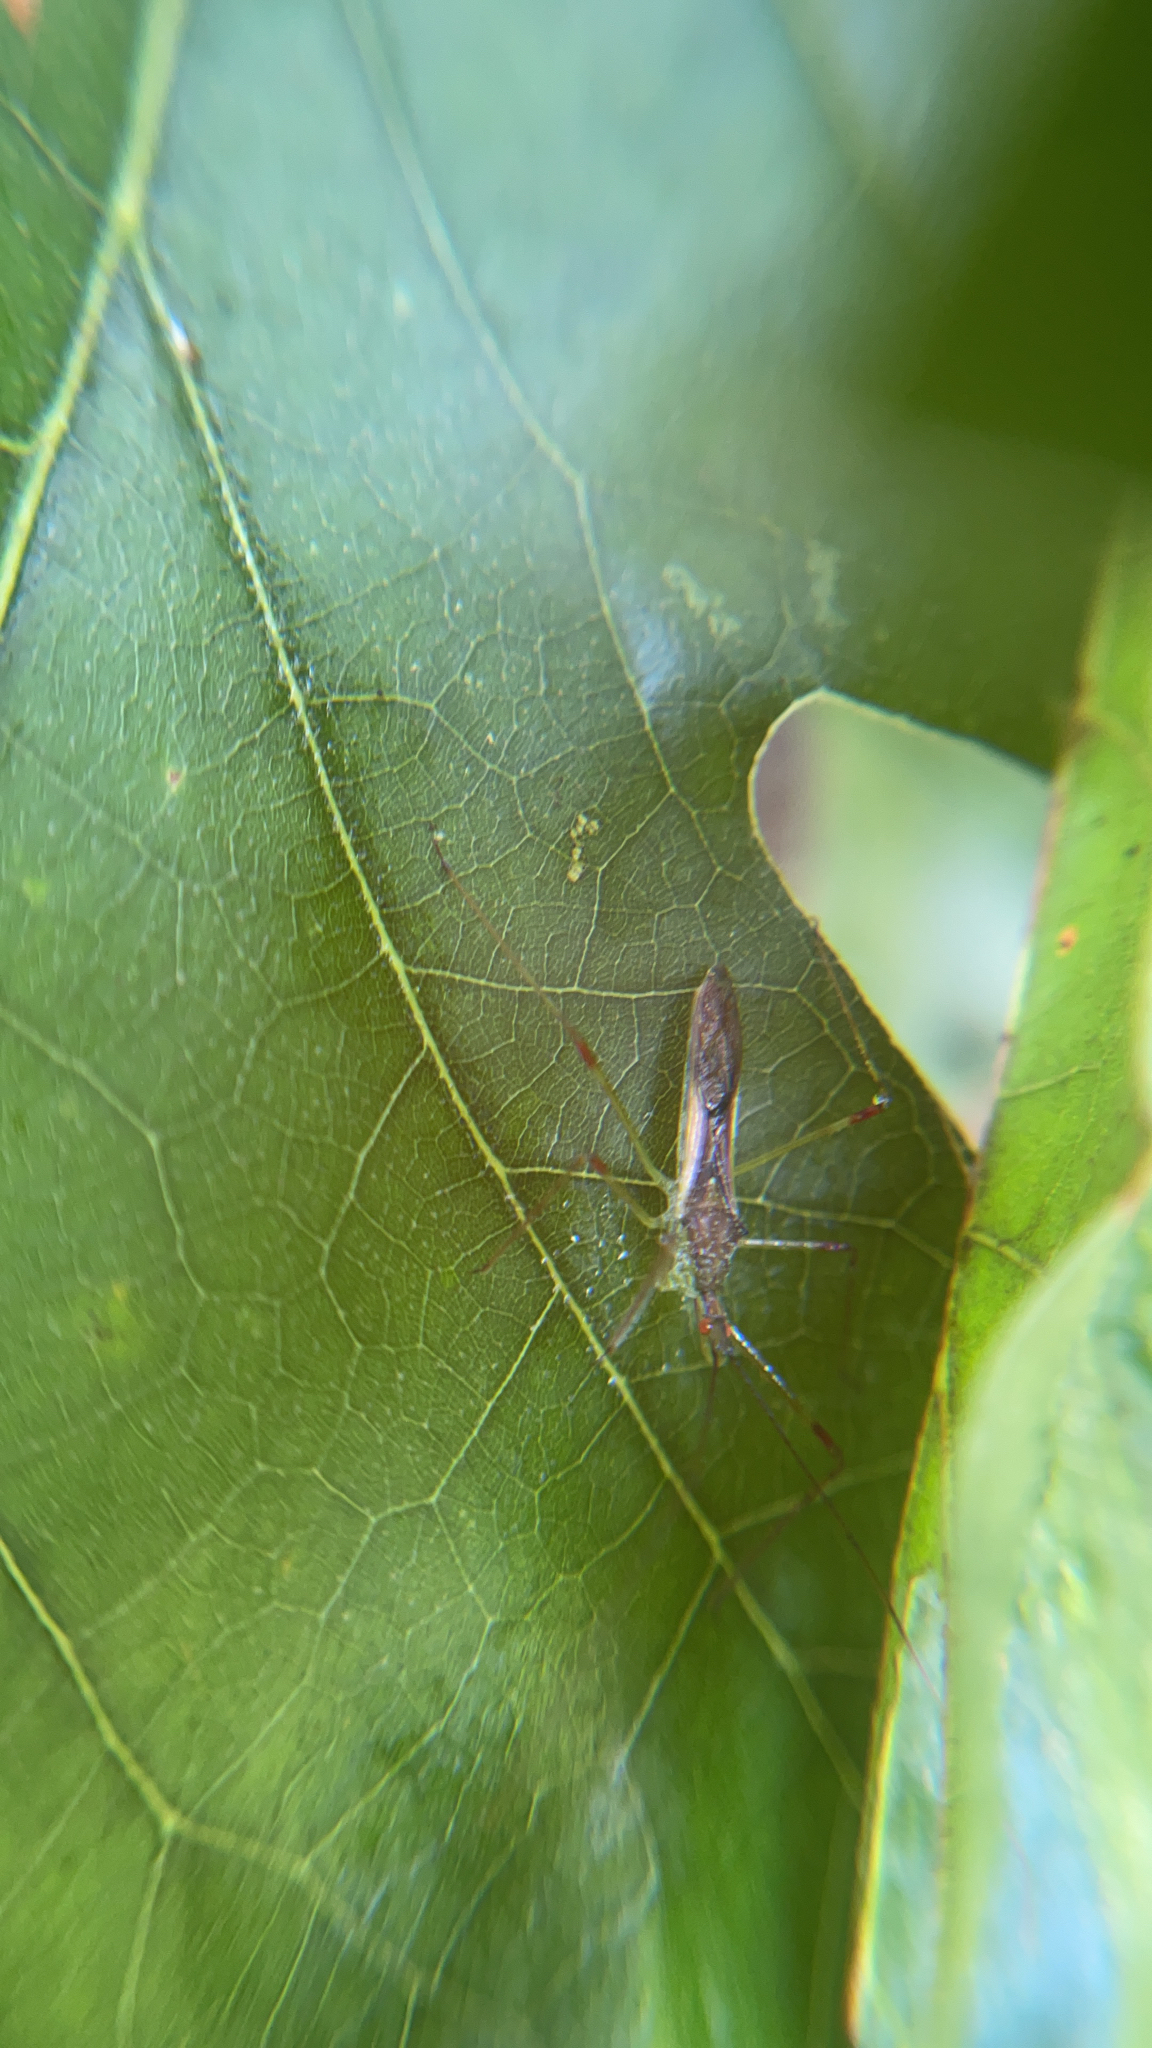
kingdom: Animalia
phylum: Arthropoda
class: Insecta
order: Hemiptera
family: Reduviidae
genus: Zelus
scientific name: Zelus luridus
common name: Pale green assassin bug
